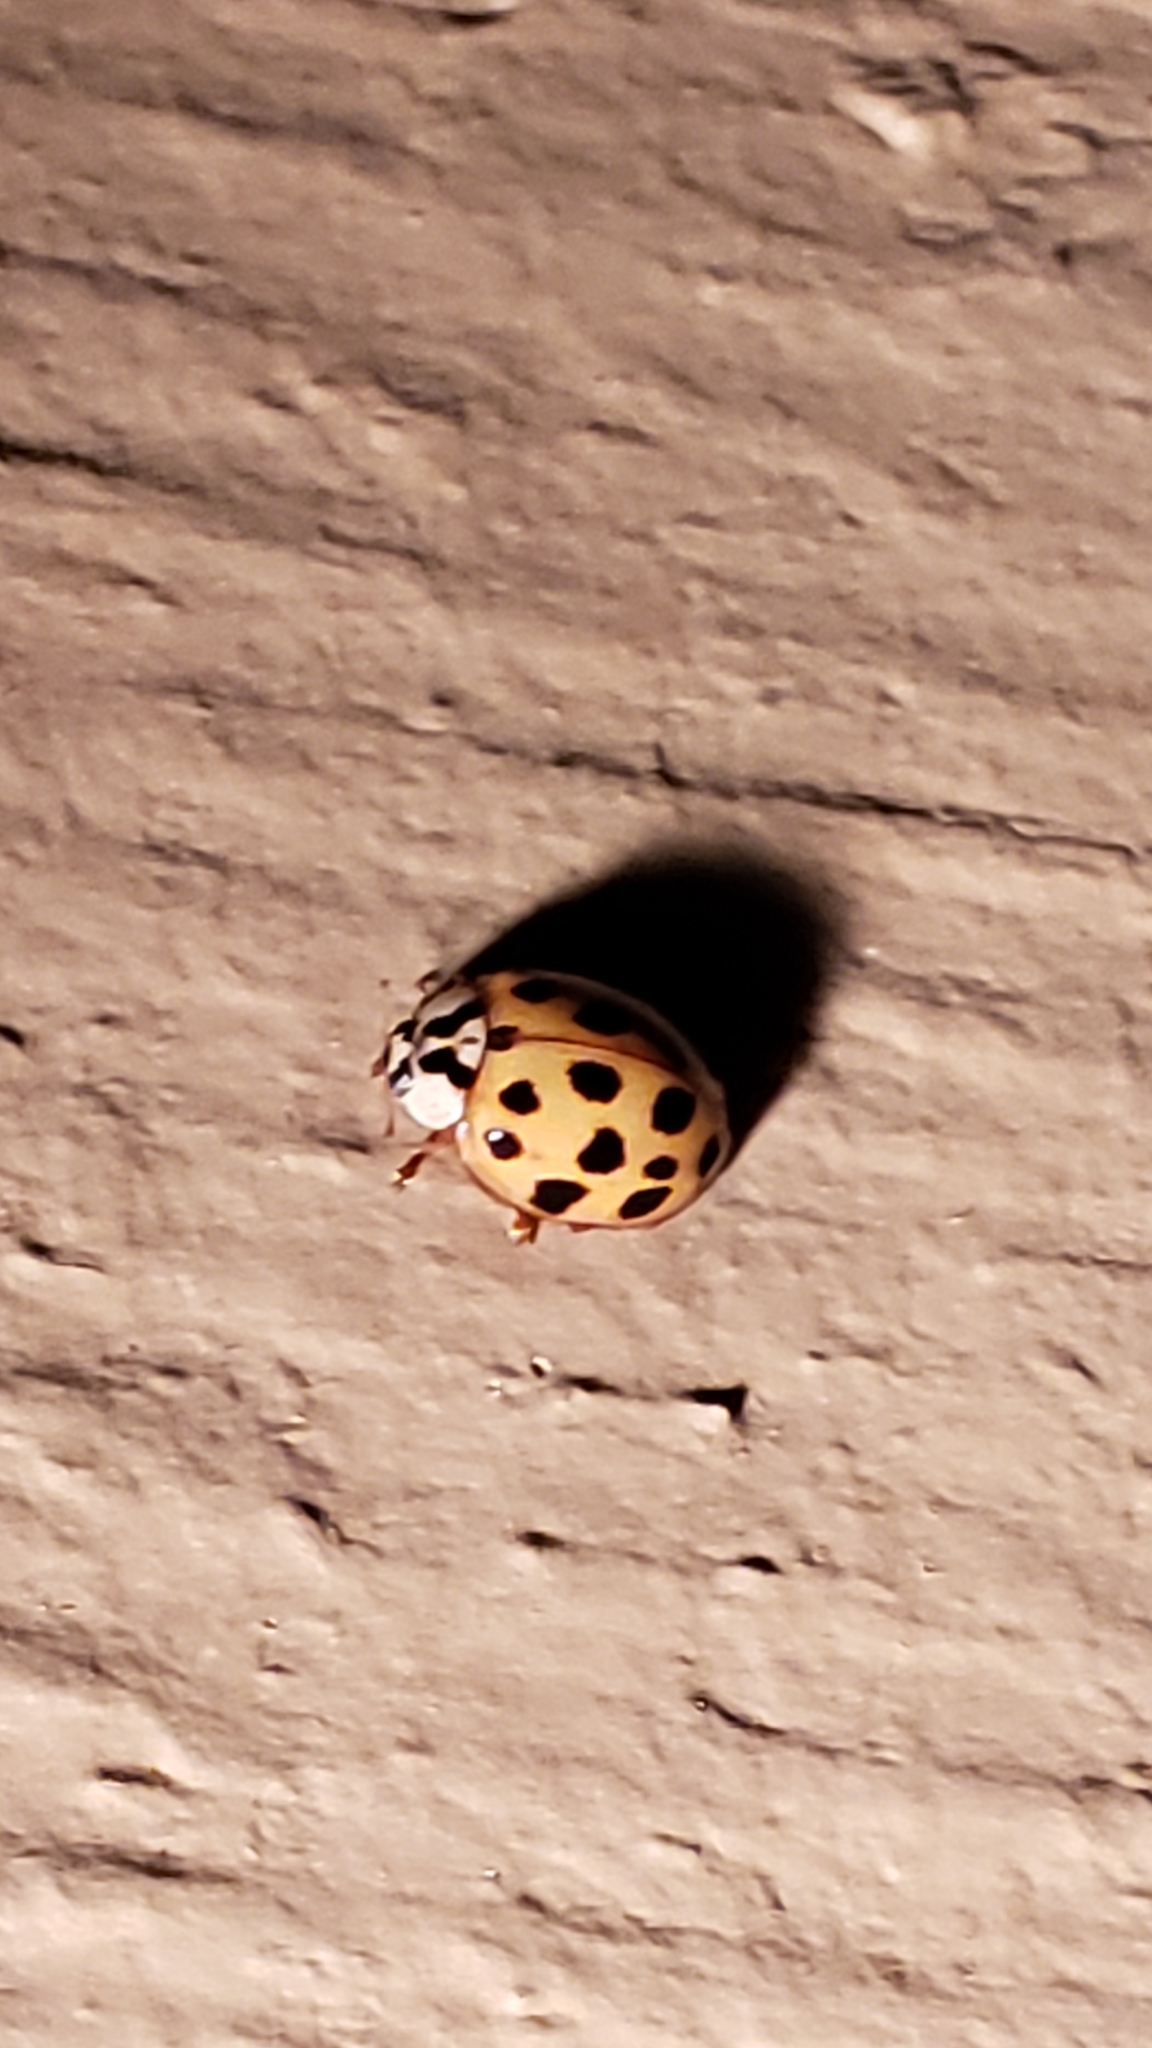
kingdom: Animalia
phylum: Arthropoda
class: Insecta
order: Coleoptera
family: Coccinellidae
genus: Harmonia
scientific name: Harmonia axyridis
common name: Harlequin ladybird
